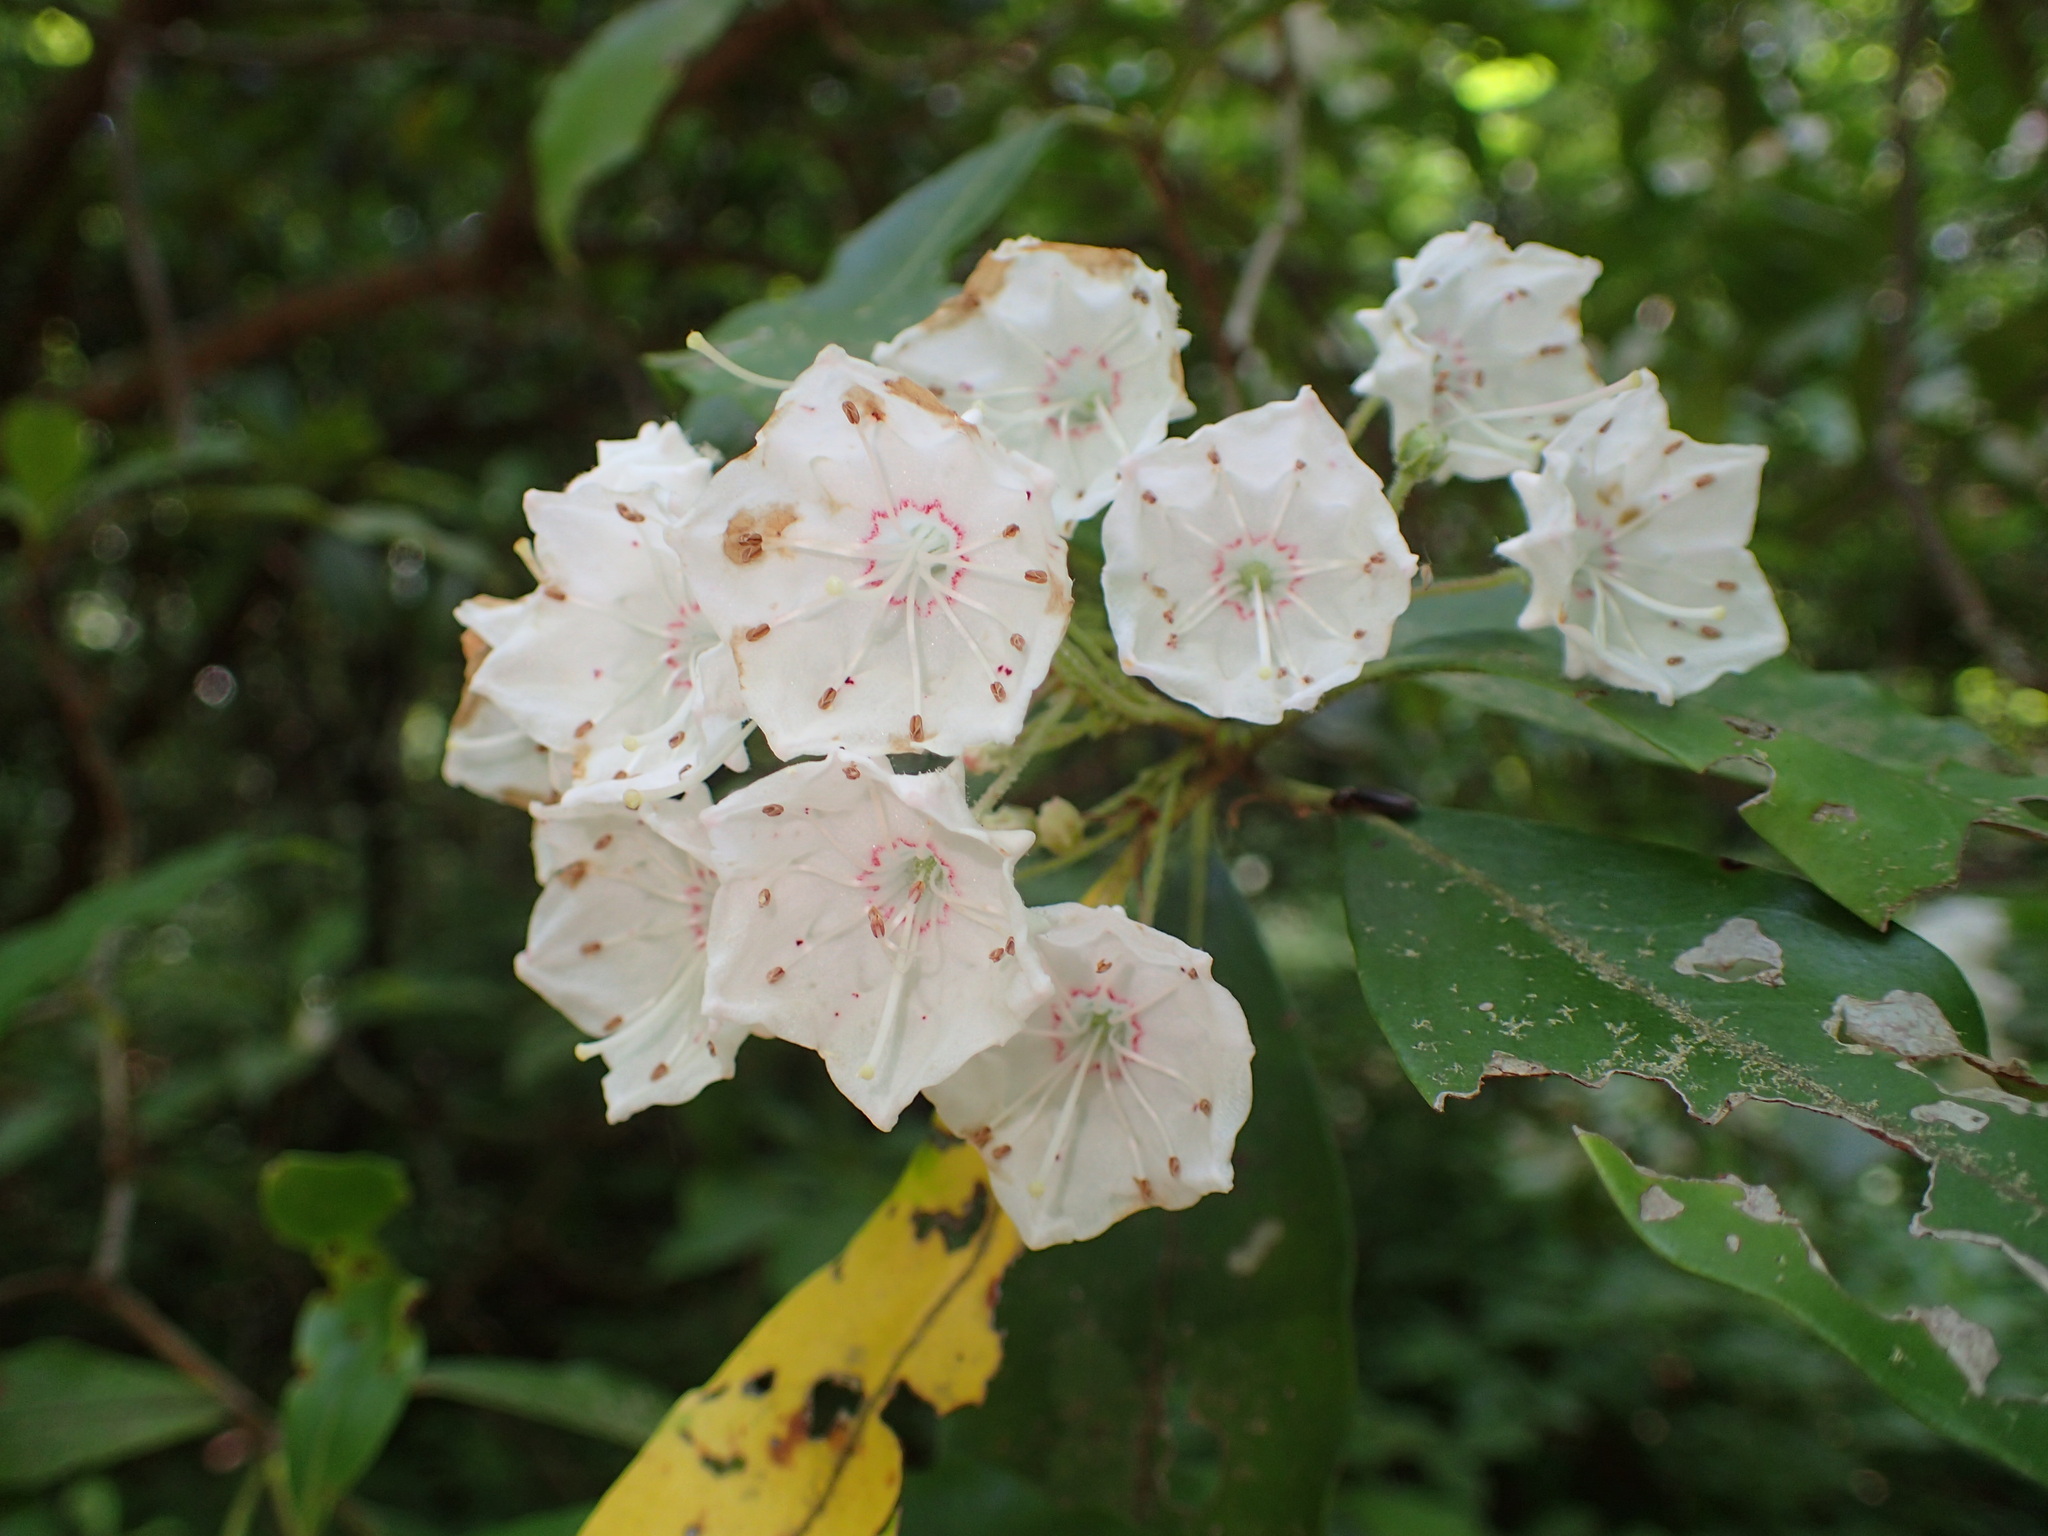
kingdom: Plantae
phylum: Tracheophyta
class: Magnoliopsida
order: Ericales
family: Ericaceae
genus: Kalmia
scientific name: Kalmia latifolia
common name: Mountain-laurel
